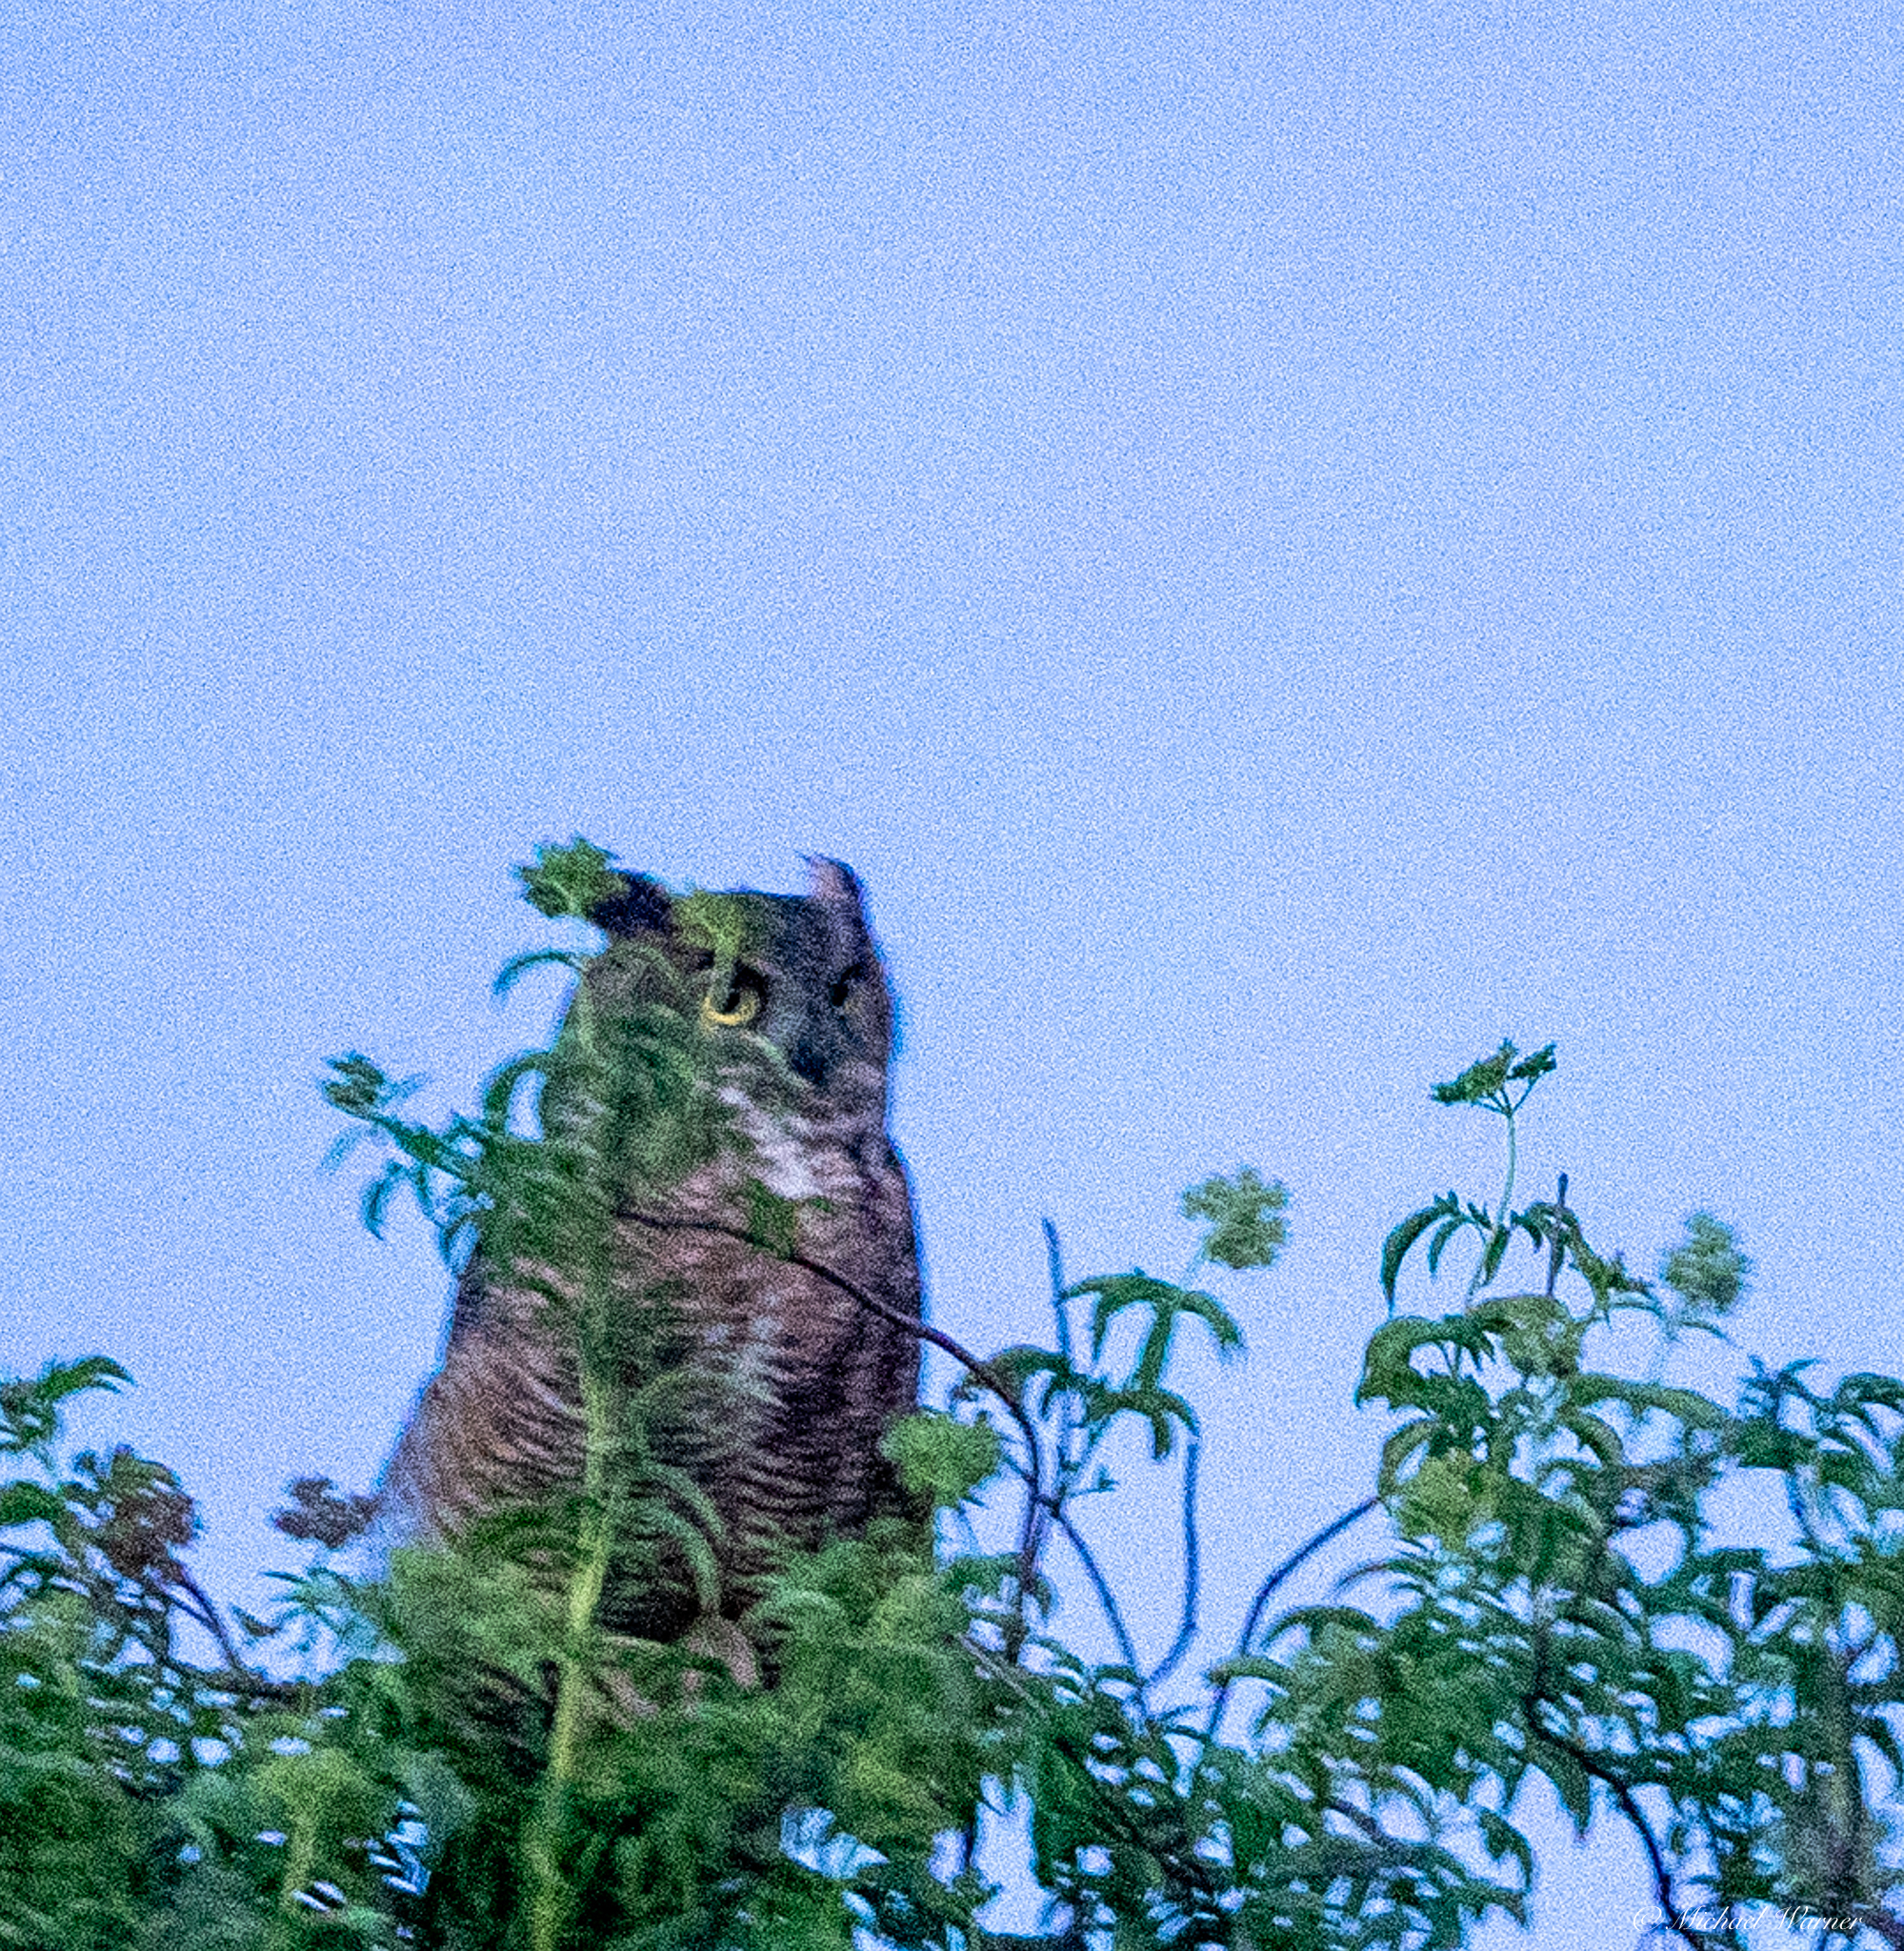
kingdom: Animalia
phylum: Chordata
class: Aves
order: Strigiformes
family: Strigidae
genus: Bubo
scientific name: Bubo virginianus
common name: Great horned owl
